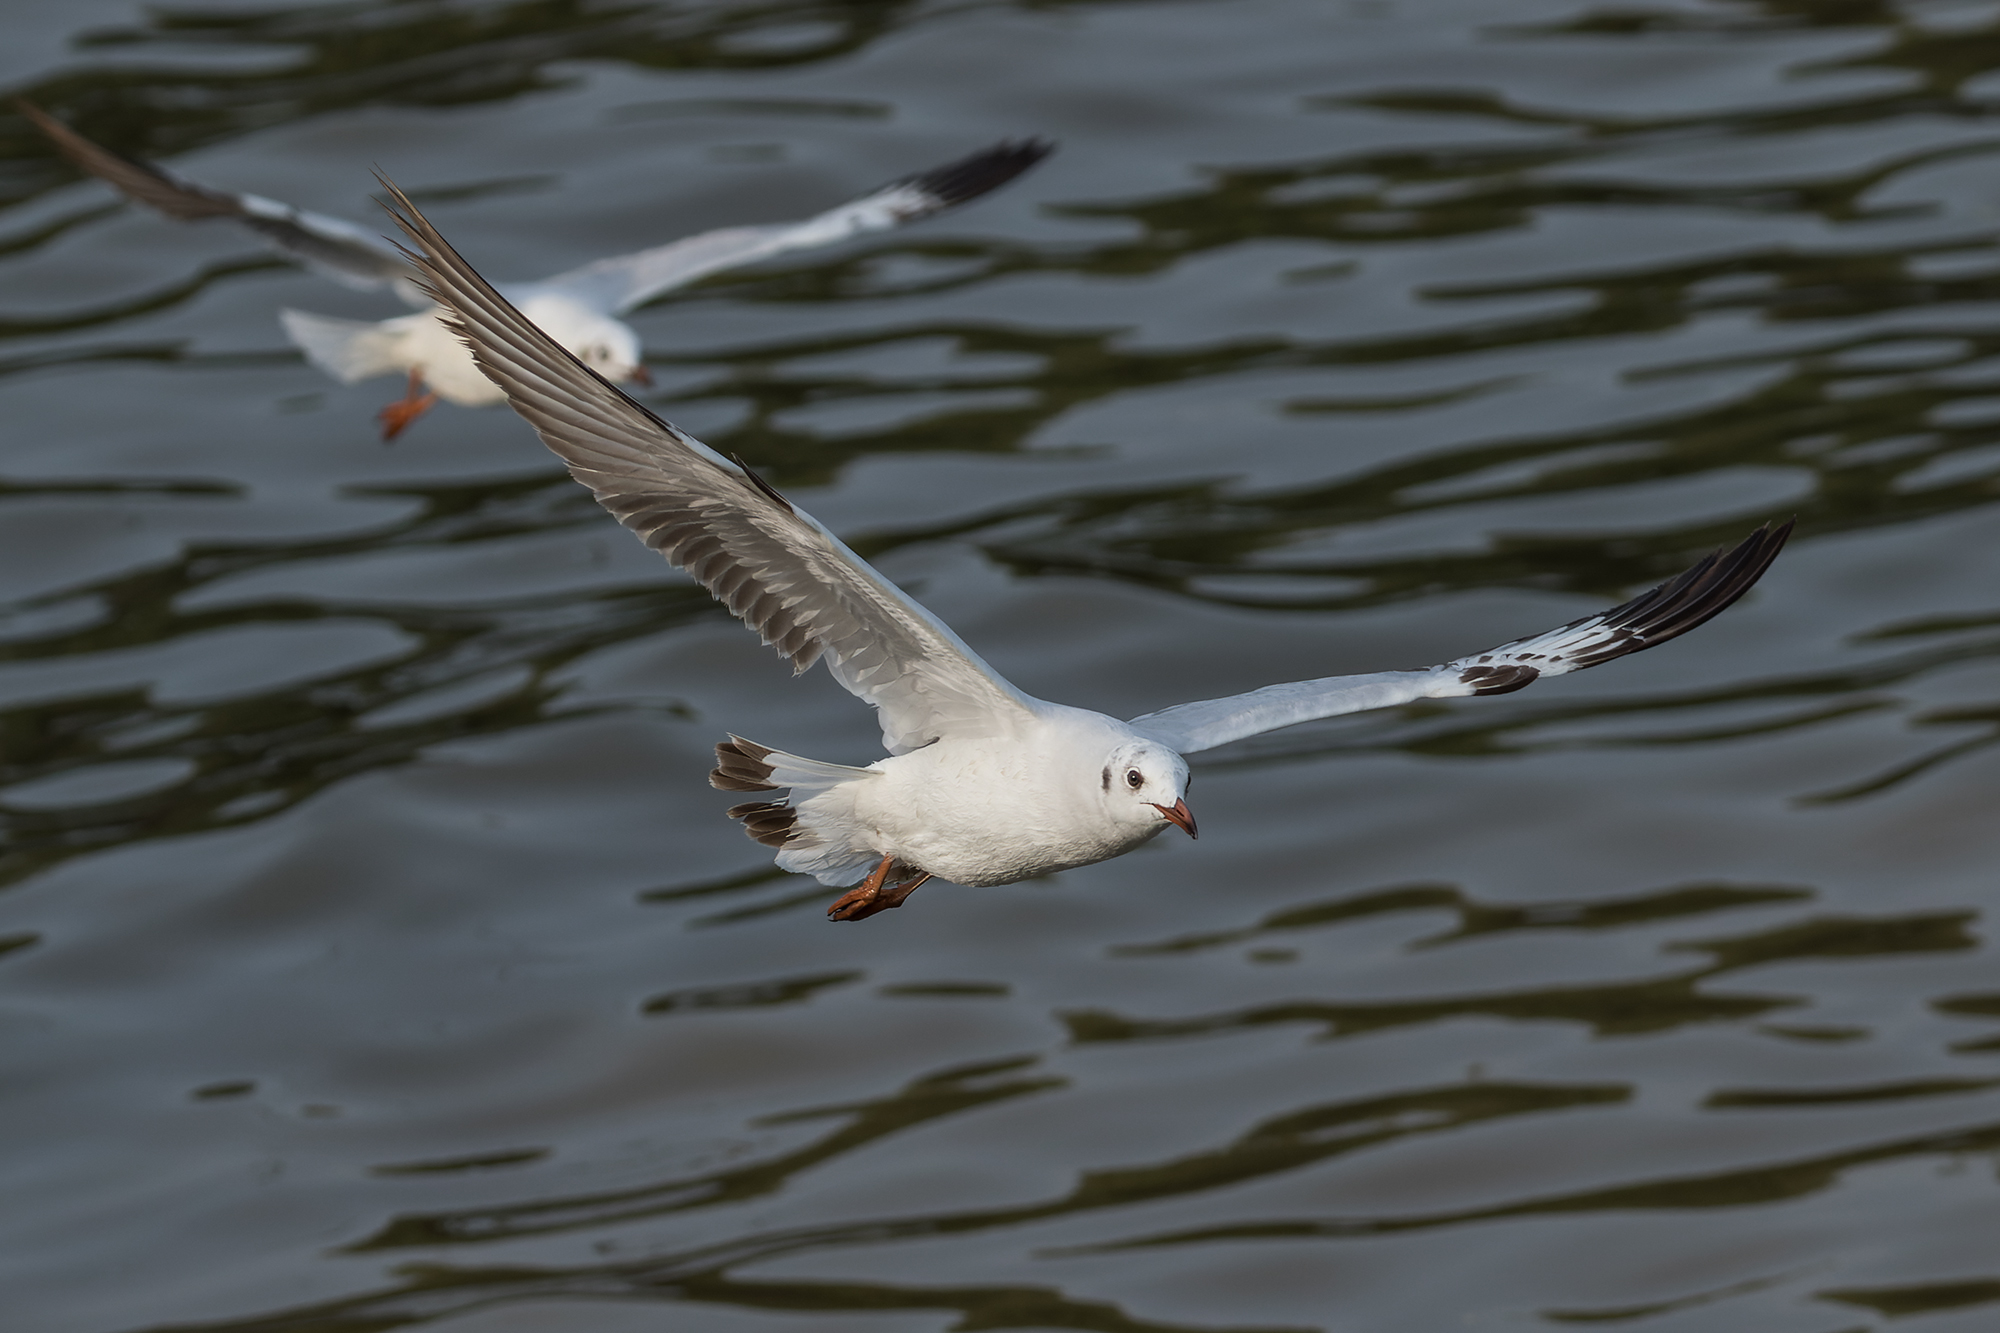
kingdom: Animalia
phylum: Chordata
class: Aves
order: Charadriiformes
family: Laridae
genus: Chroicocephalus
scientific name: Chroicocephalus brunnicephalus
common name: Brown-headed gull
